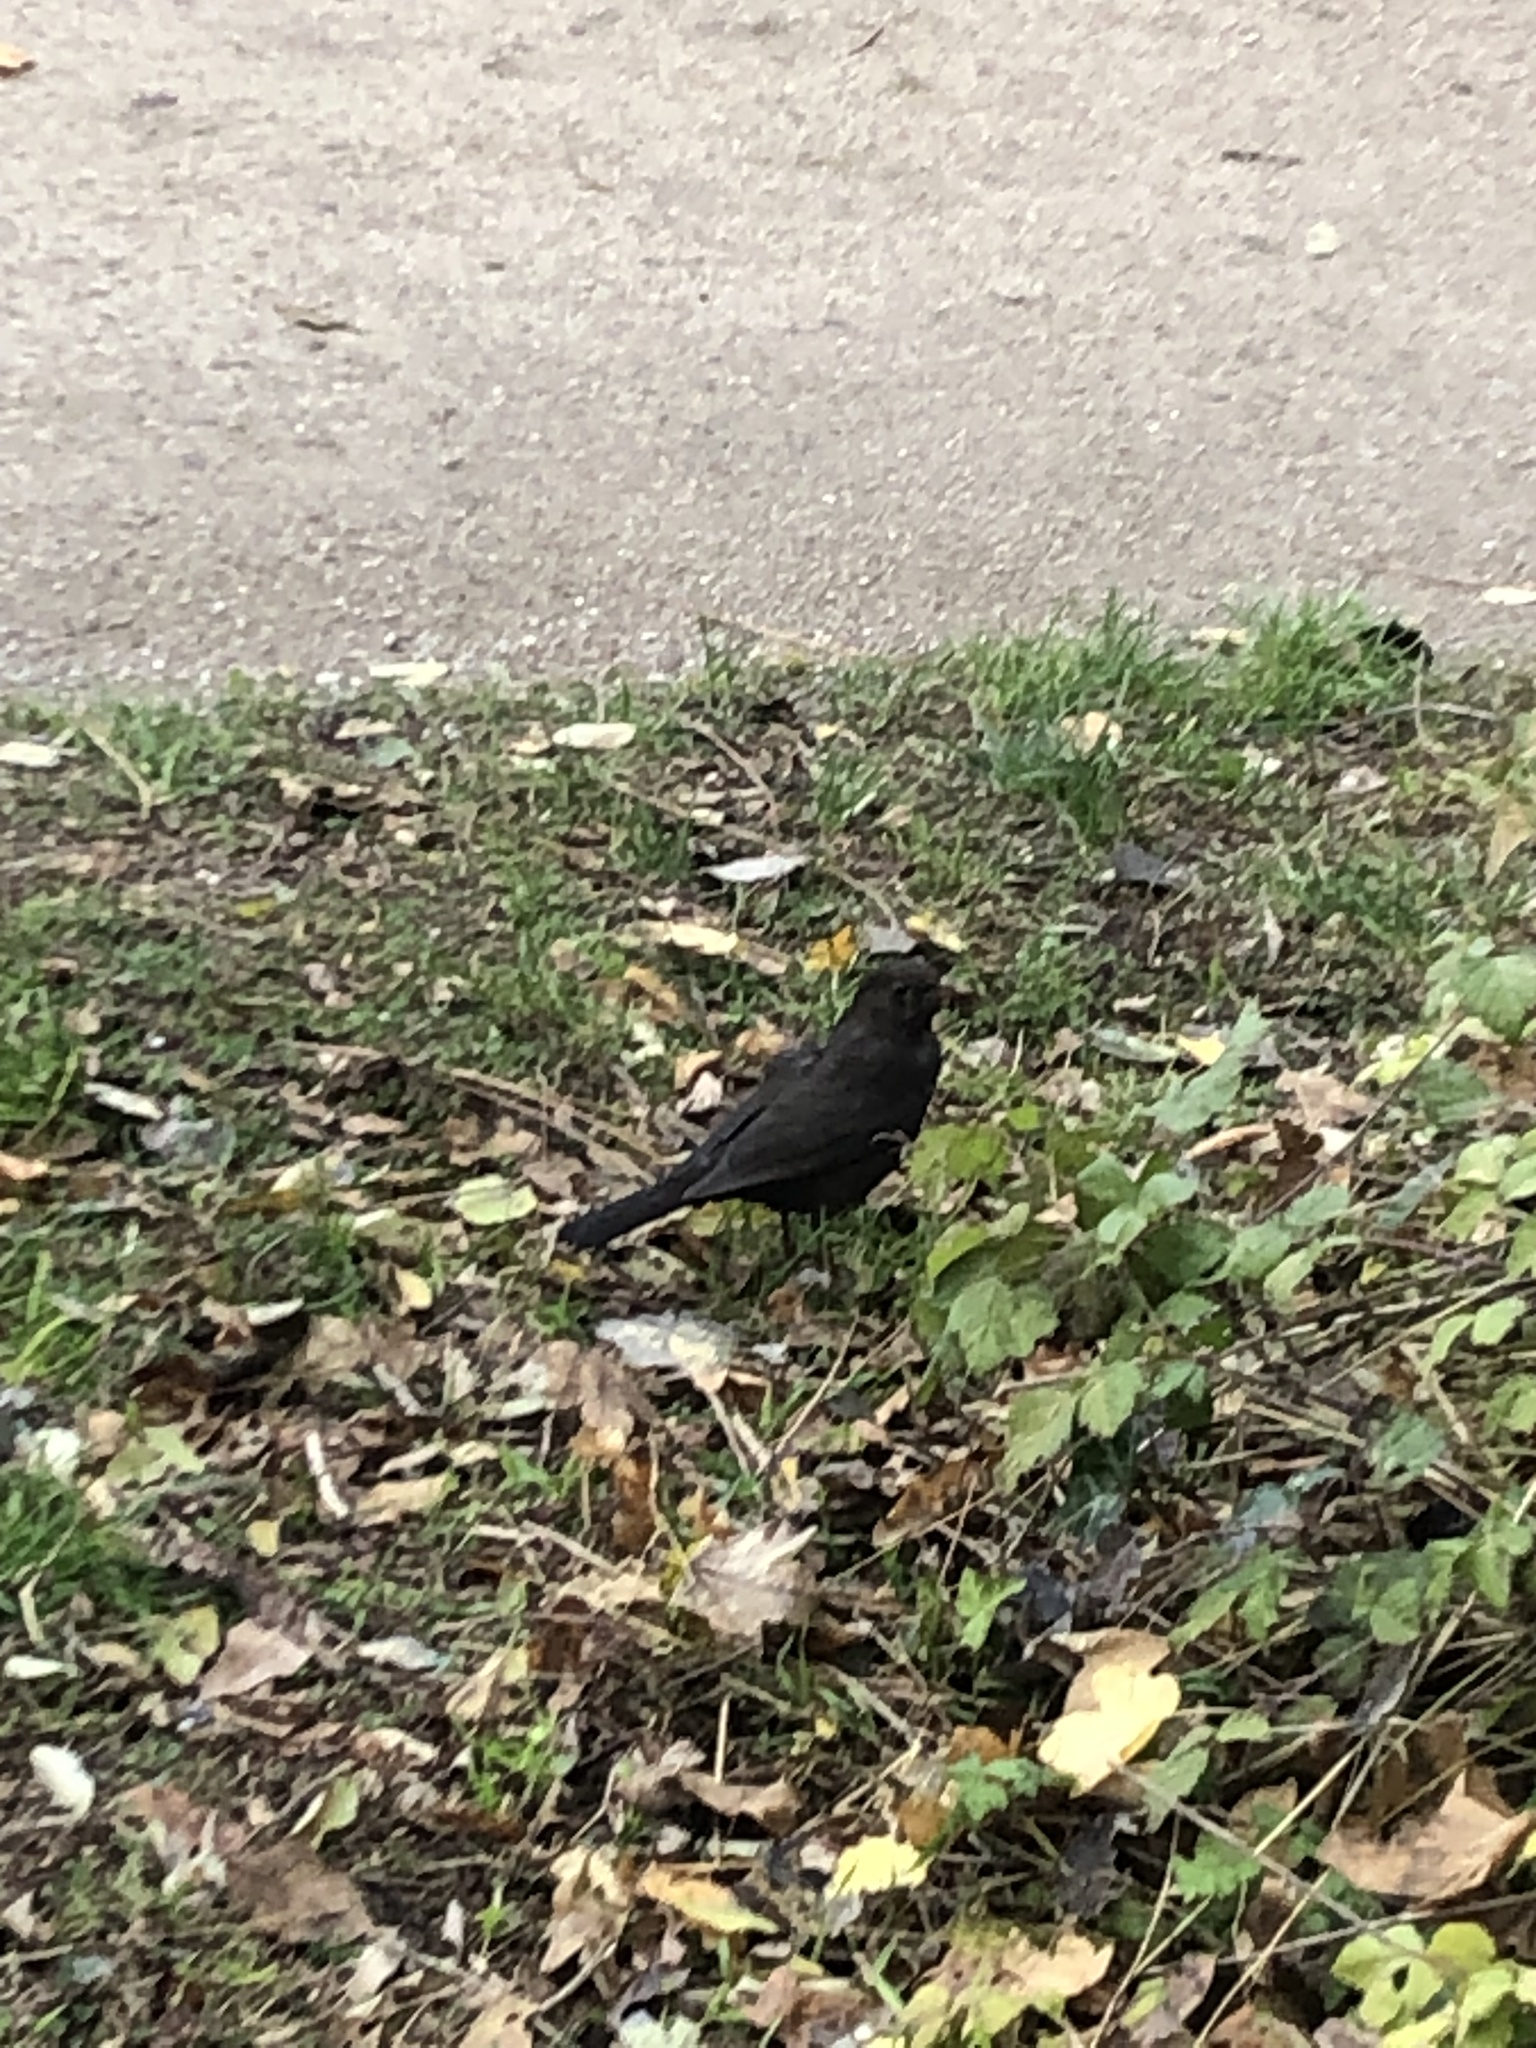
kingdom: Animalia
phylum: Chordata
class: Aves
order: Passeriformes
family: Turdidae
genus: Turdus
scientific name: Turdus merula
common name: Common blackbird
